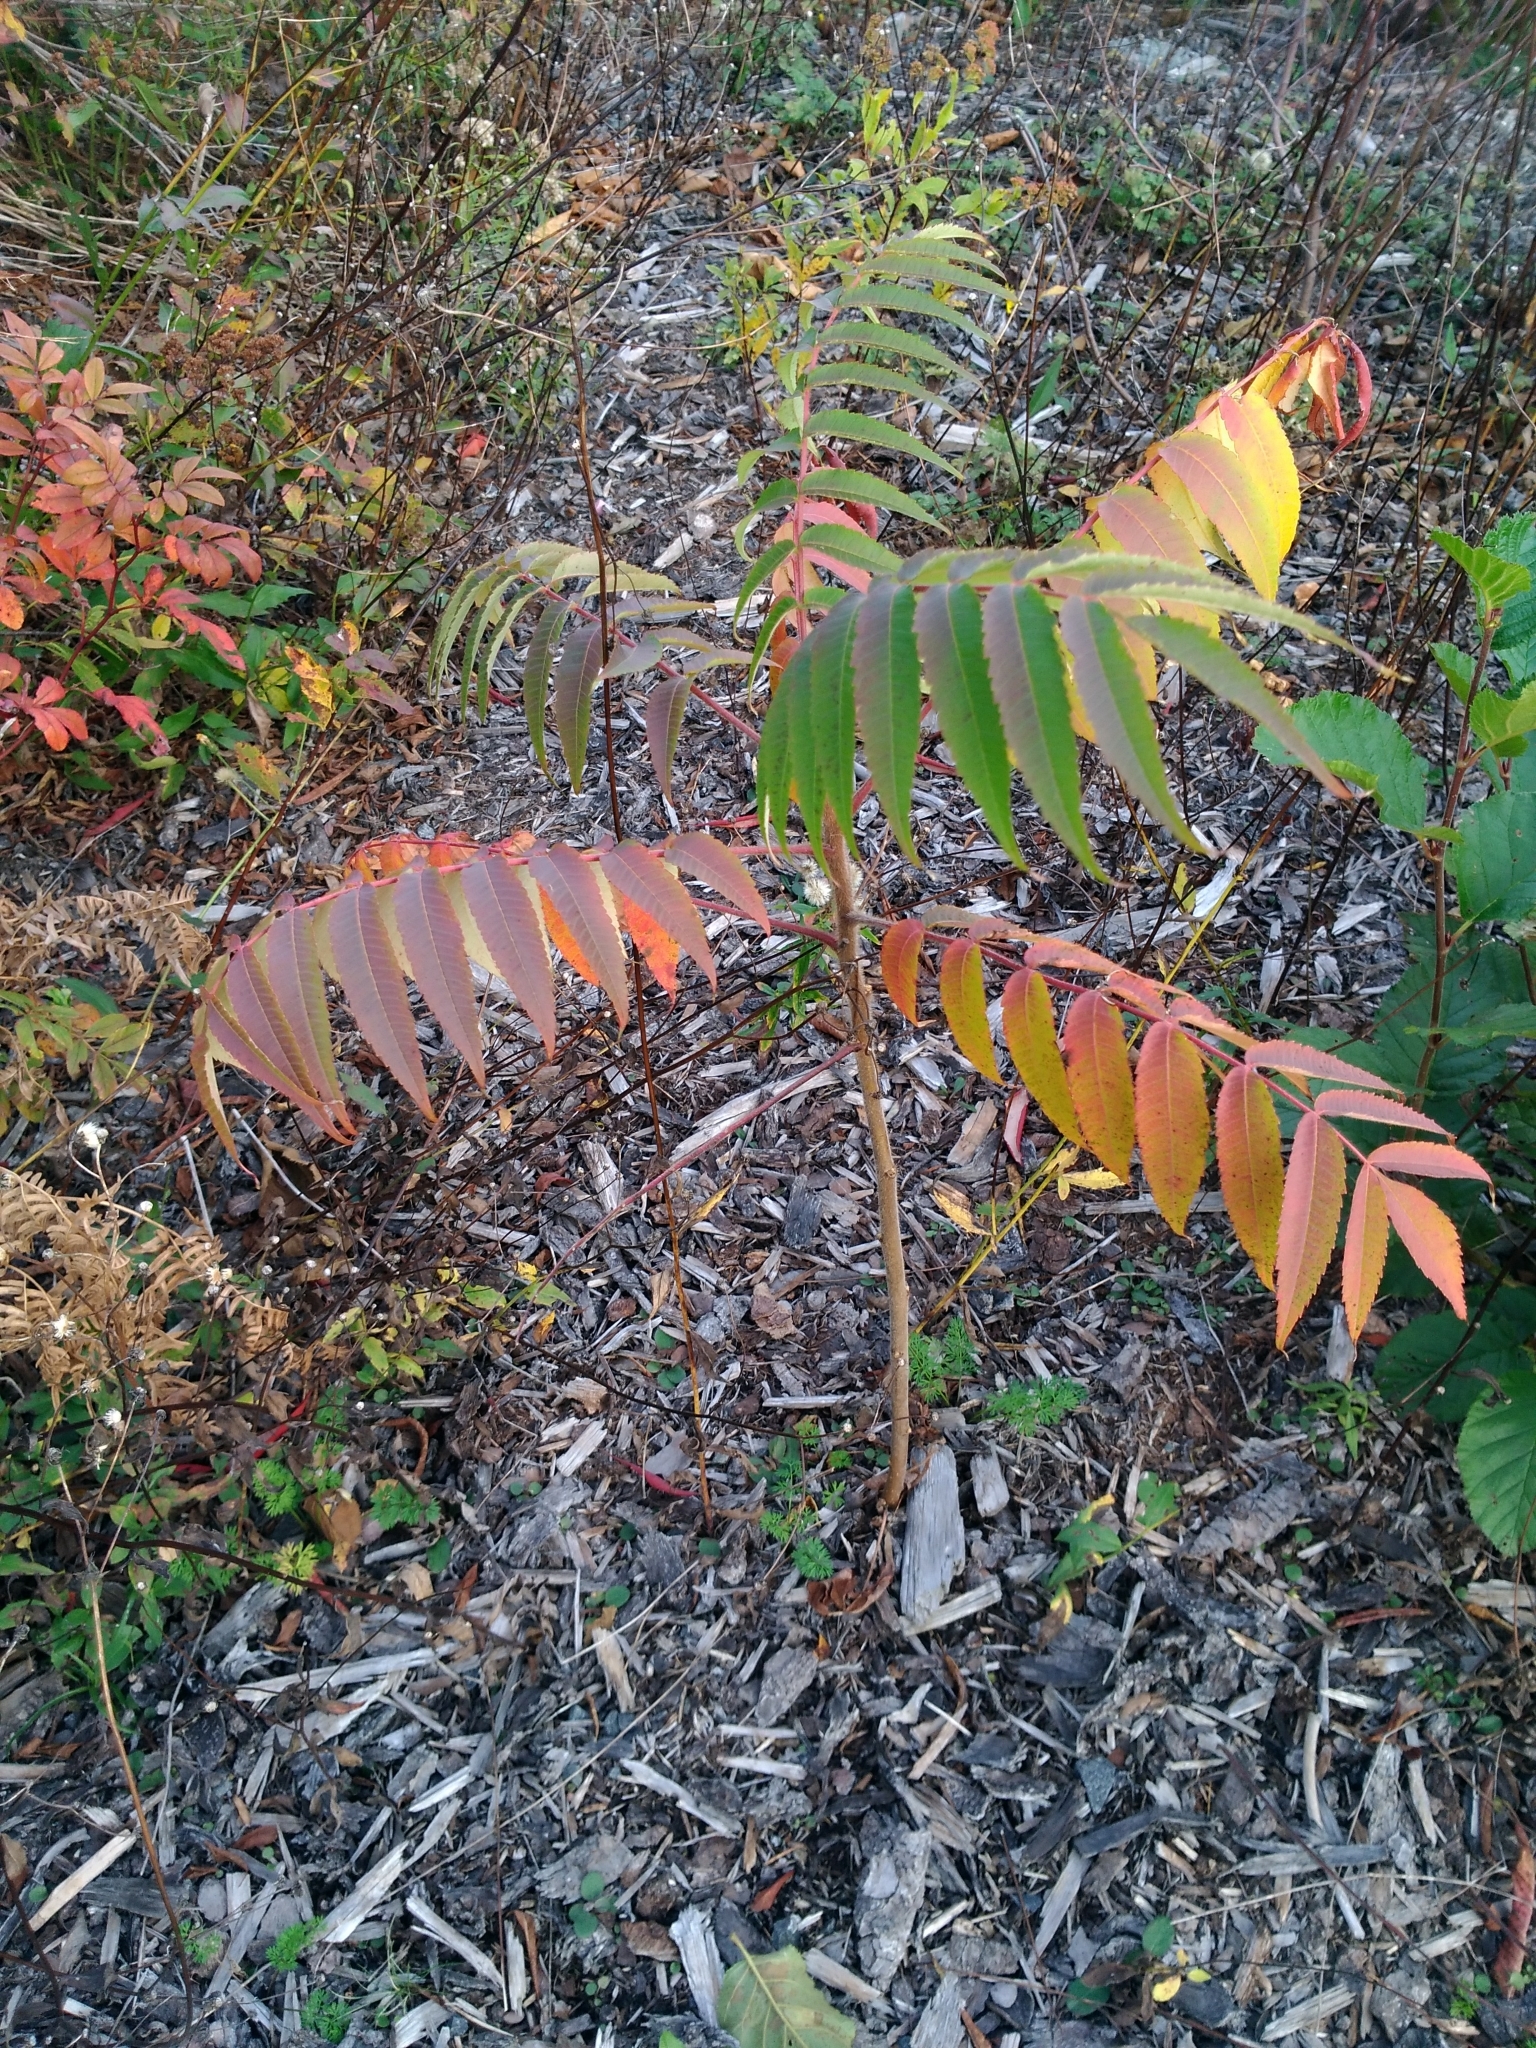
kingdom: Plantae
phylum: Tracheophyta
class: Magnoliopsida
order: Sapindales
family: Anacardiaceae
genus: Rhus
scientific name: Rhus typhina
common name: Staghorn sumac
